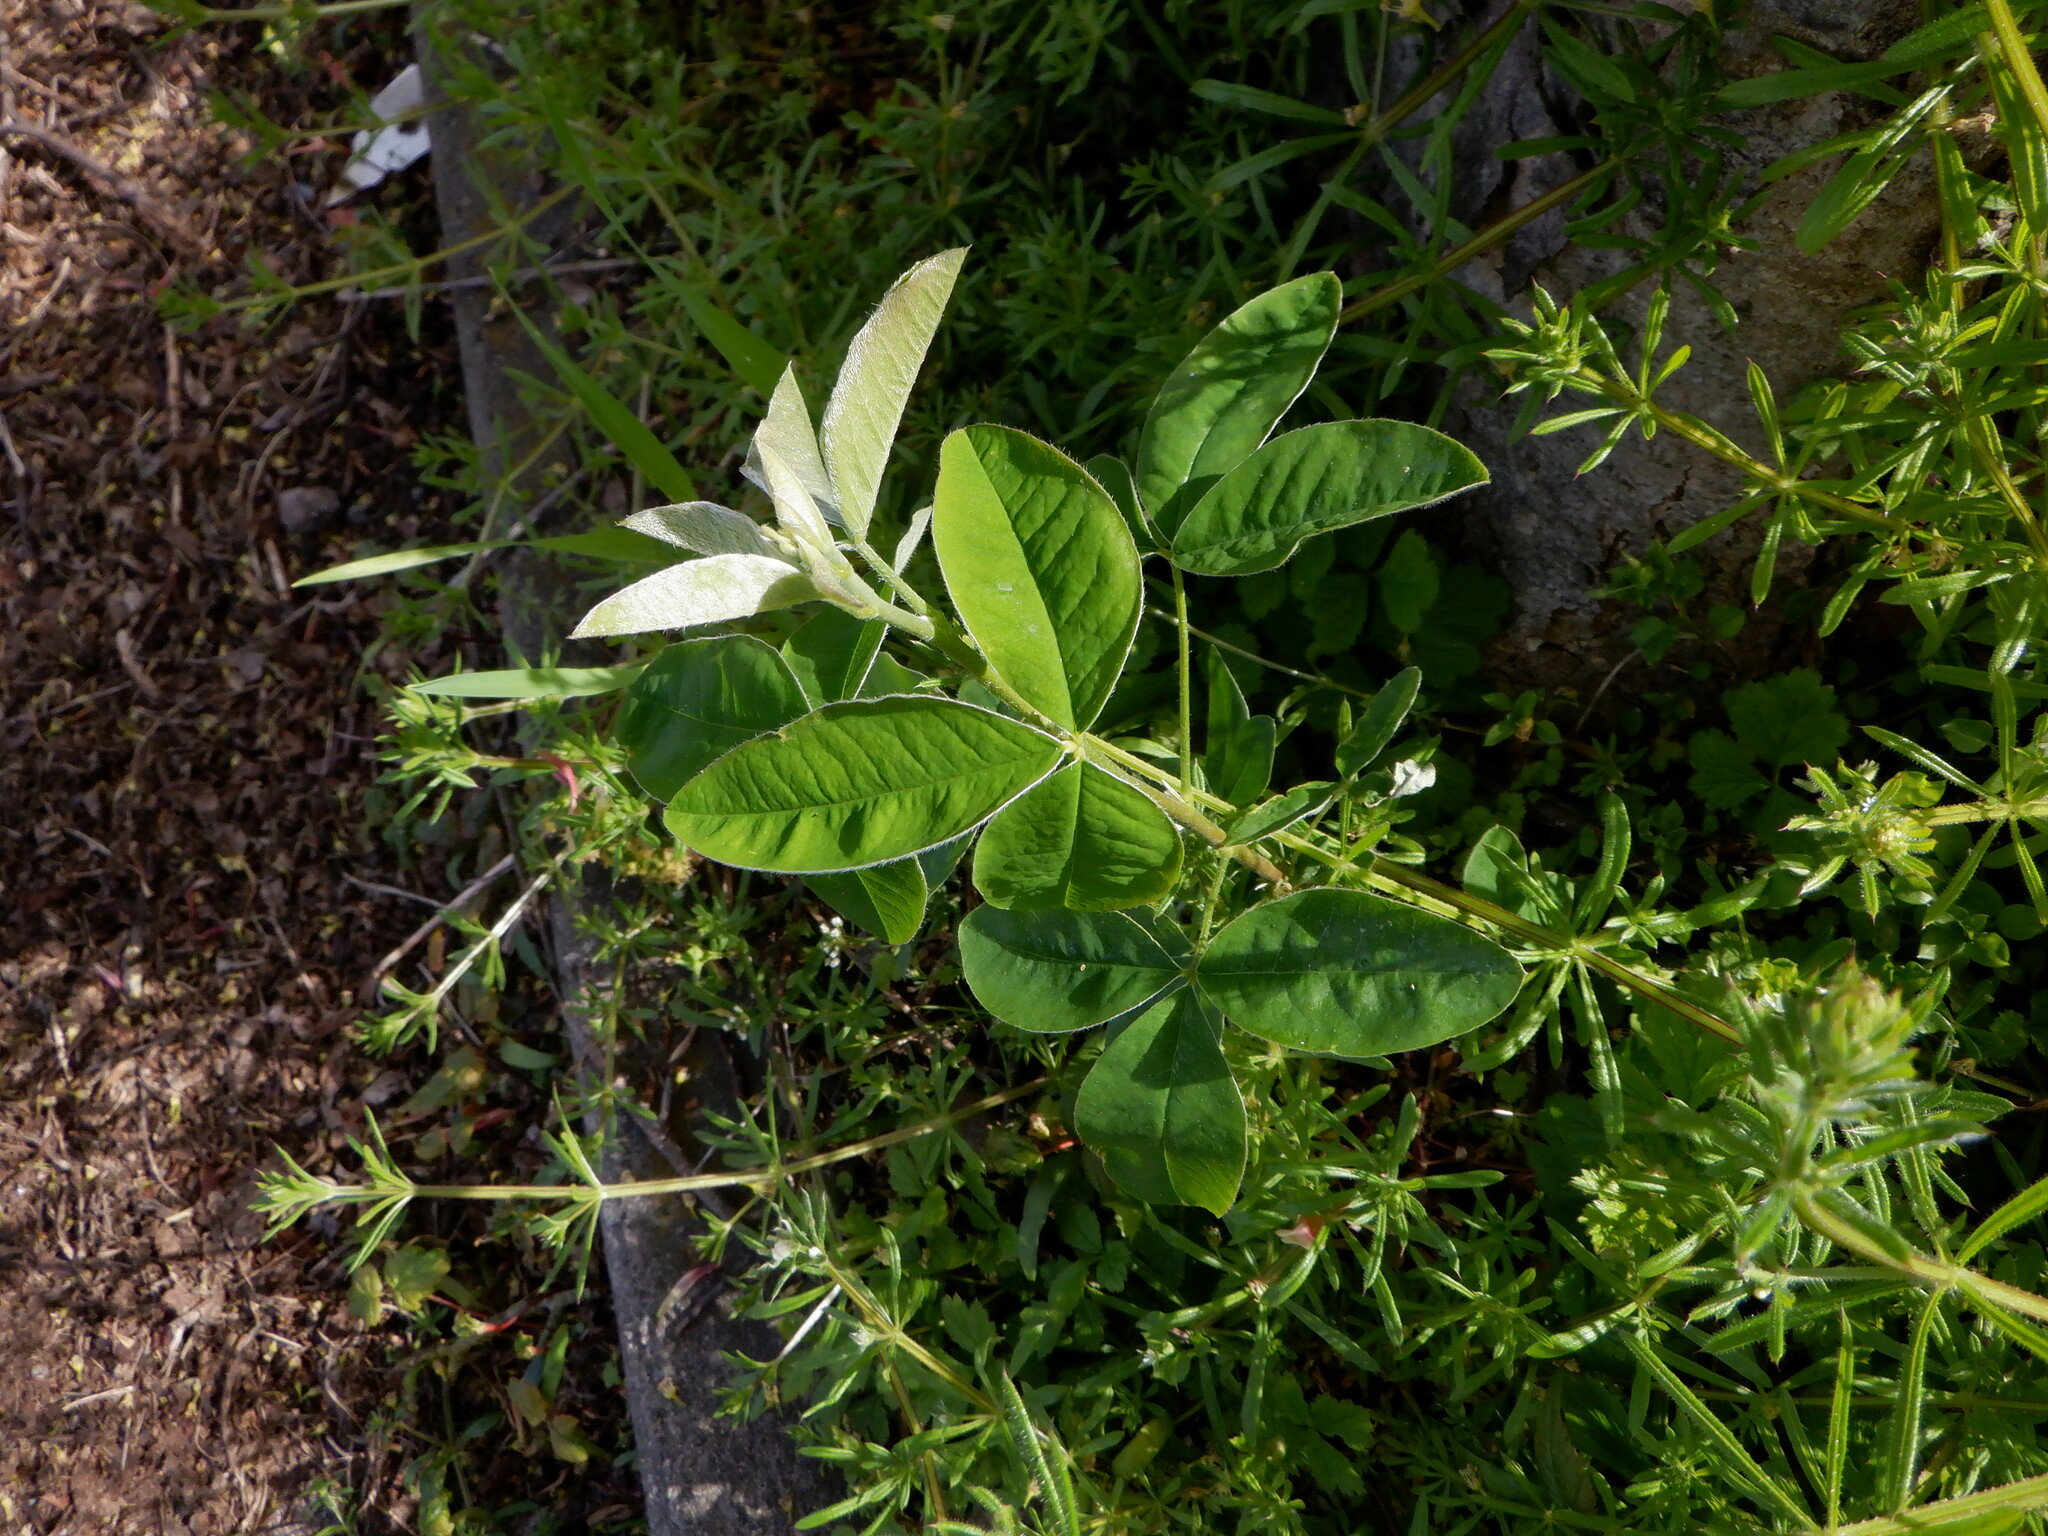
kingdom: Plantae
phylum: Tracheophyta
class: Magnoliopsida
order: Fabales
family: Fabaceae
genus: Laburnum
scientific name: Laburnum anagyroides
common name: Laburnum
